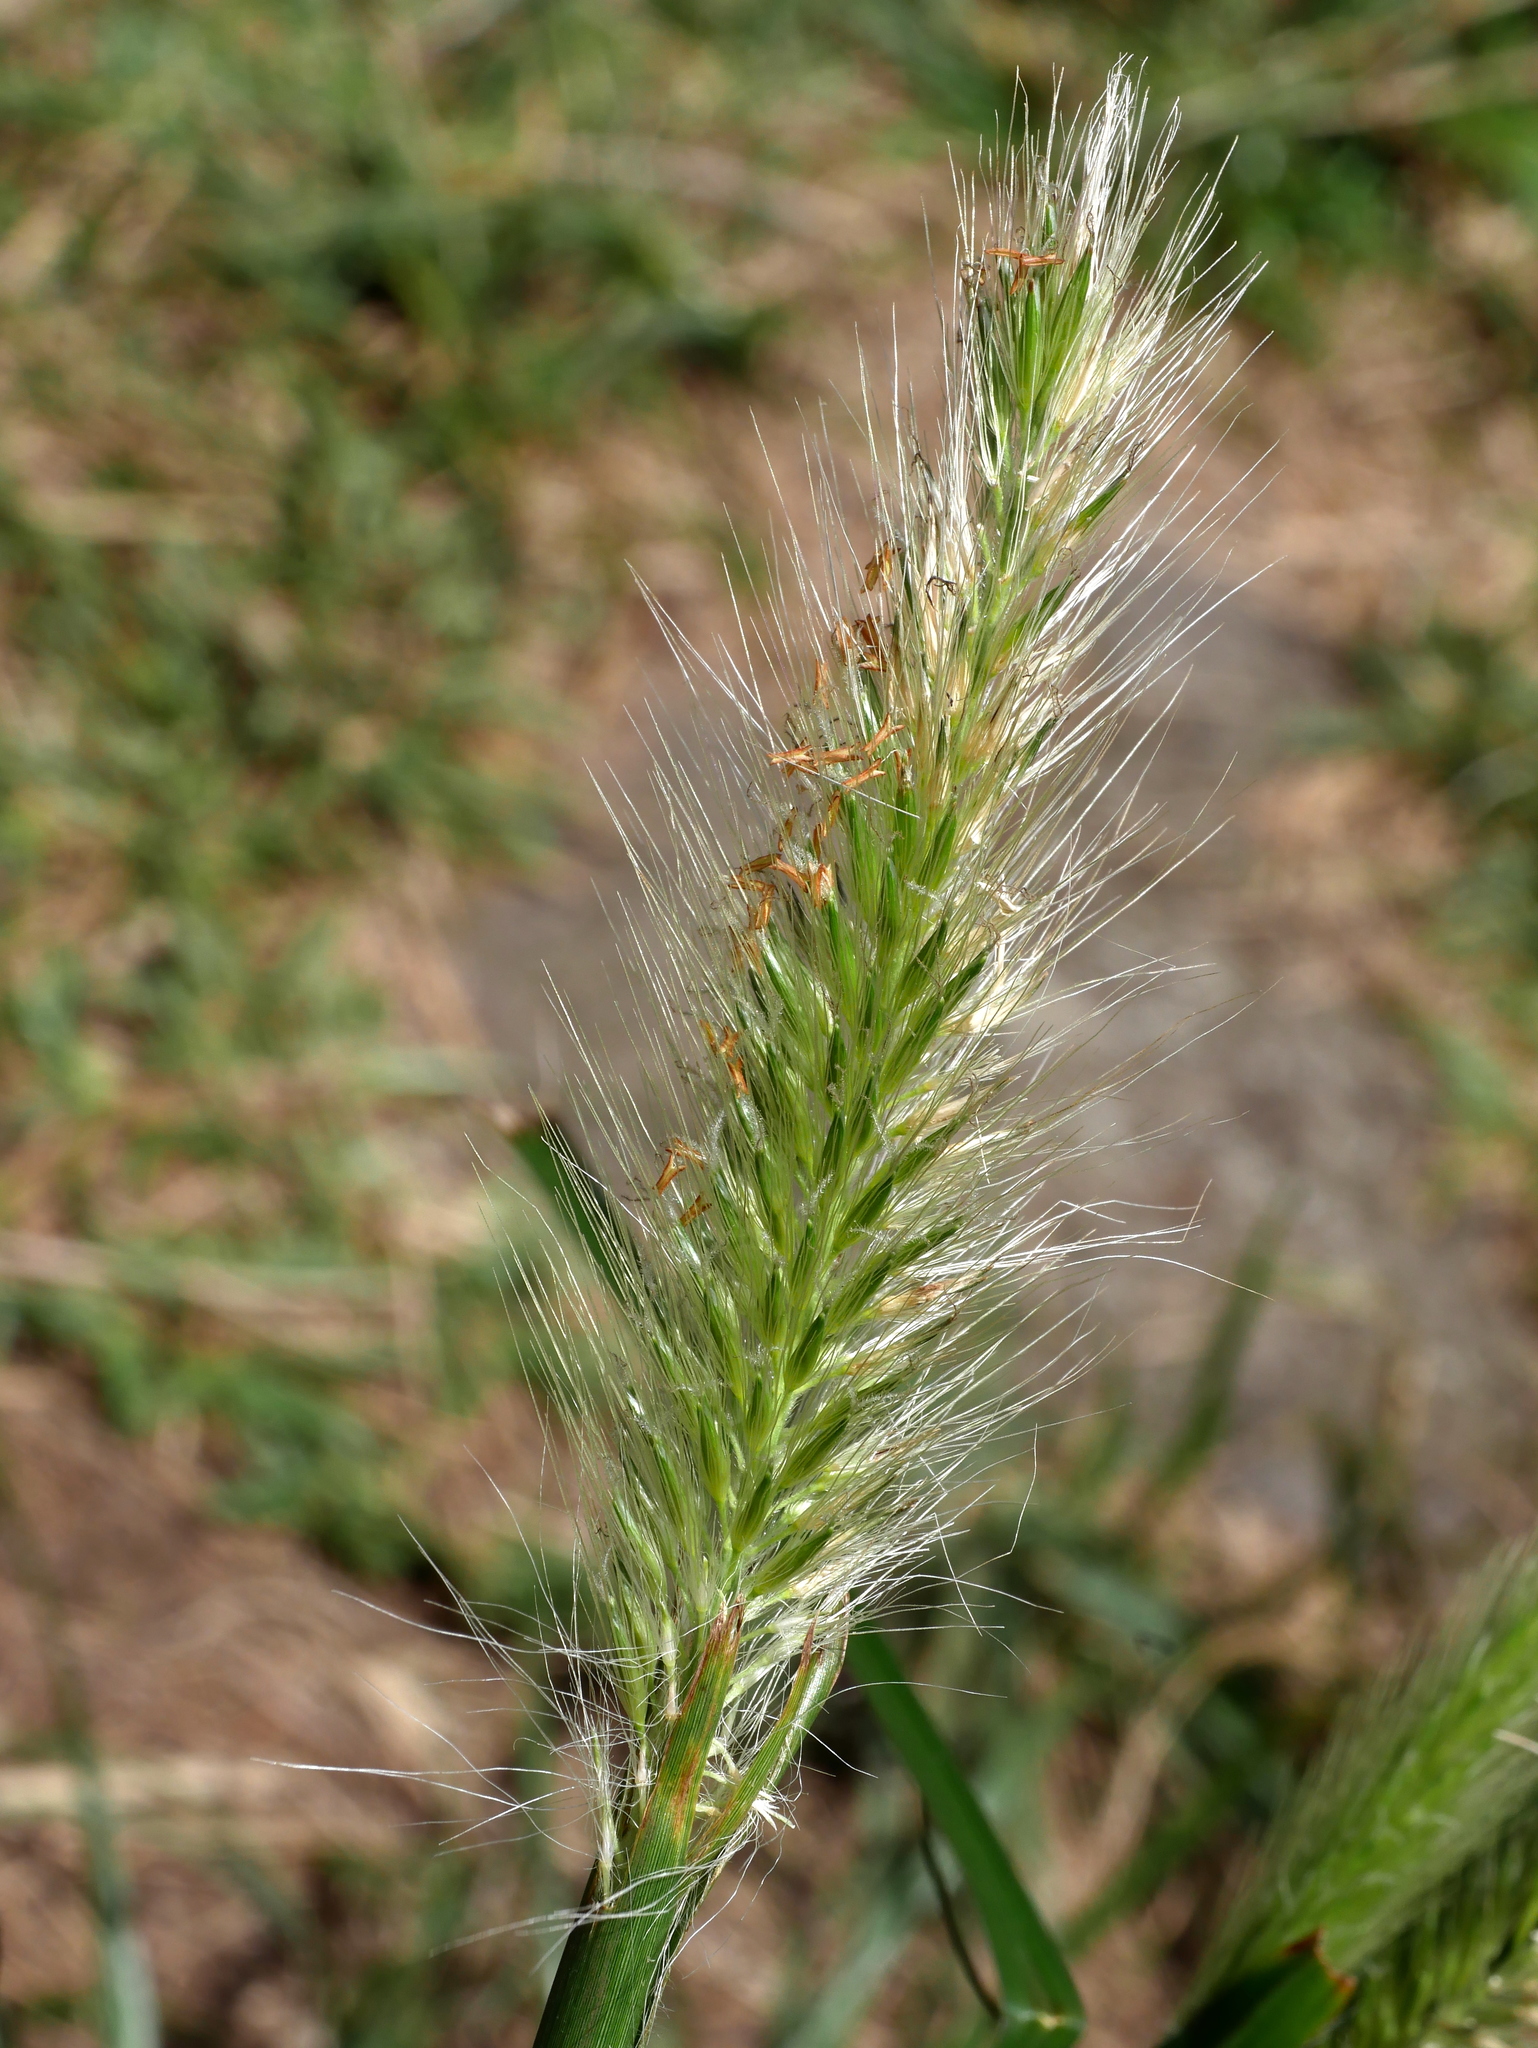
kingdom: Plantae
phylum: Tracheophyta
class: Liliopsida
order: Poales
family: Poaceae
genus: Cenchrus
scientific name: Cenchrus alopecuroides
